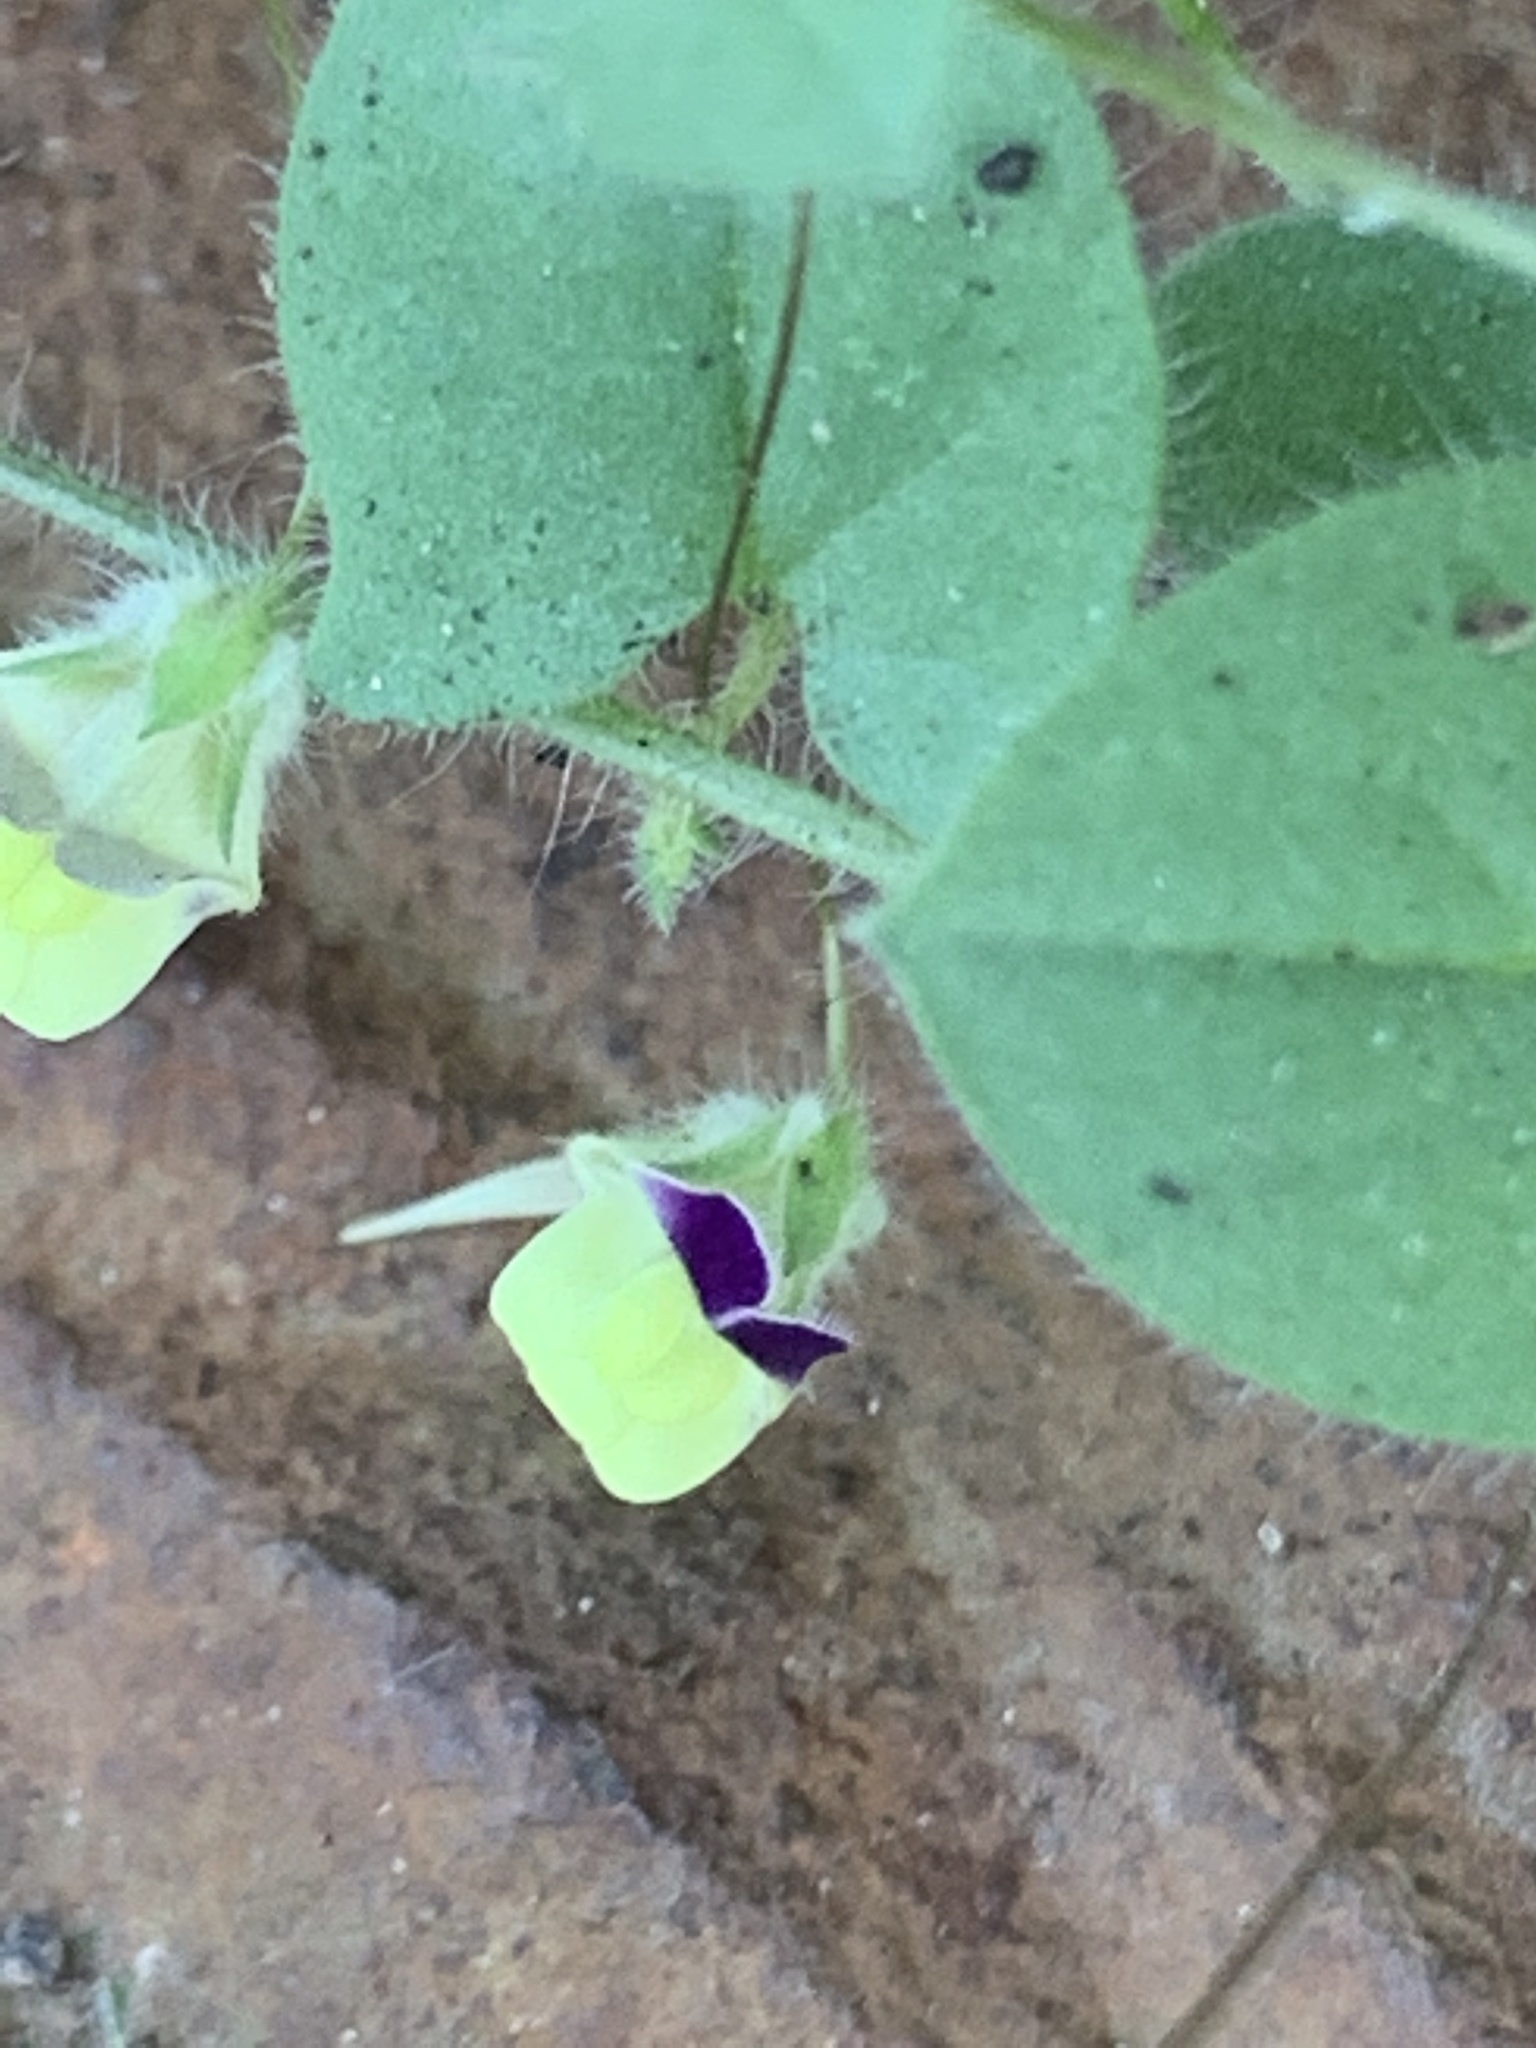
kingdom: Plantae
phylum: Tracheophyta
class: Magnoliopsida
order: Lamiales
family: Plantaginaceae
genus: Kickxia
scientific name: Kickxia elatine
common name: Sharp-leaved fluellen
